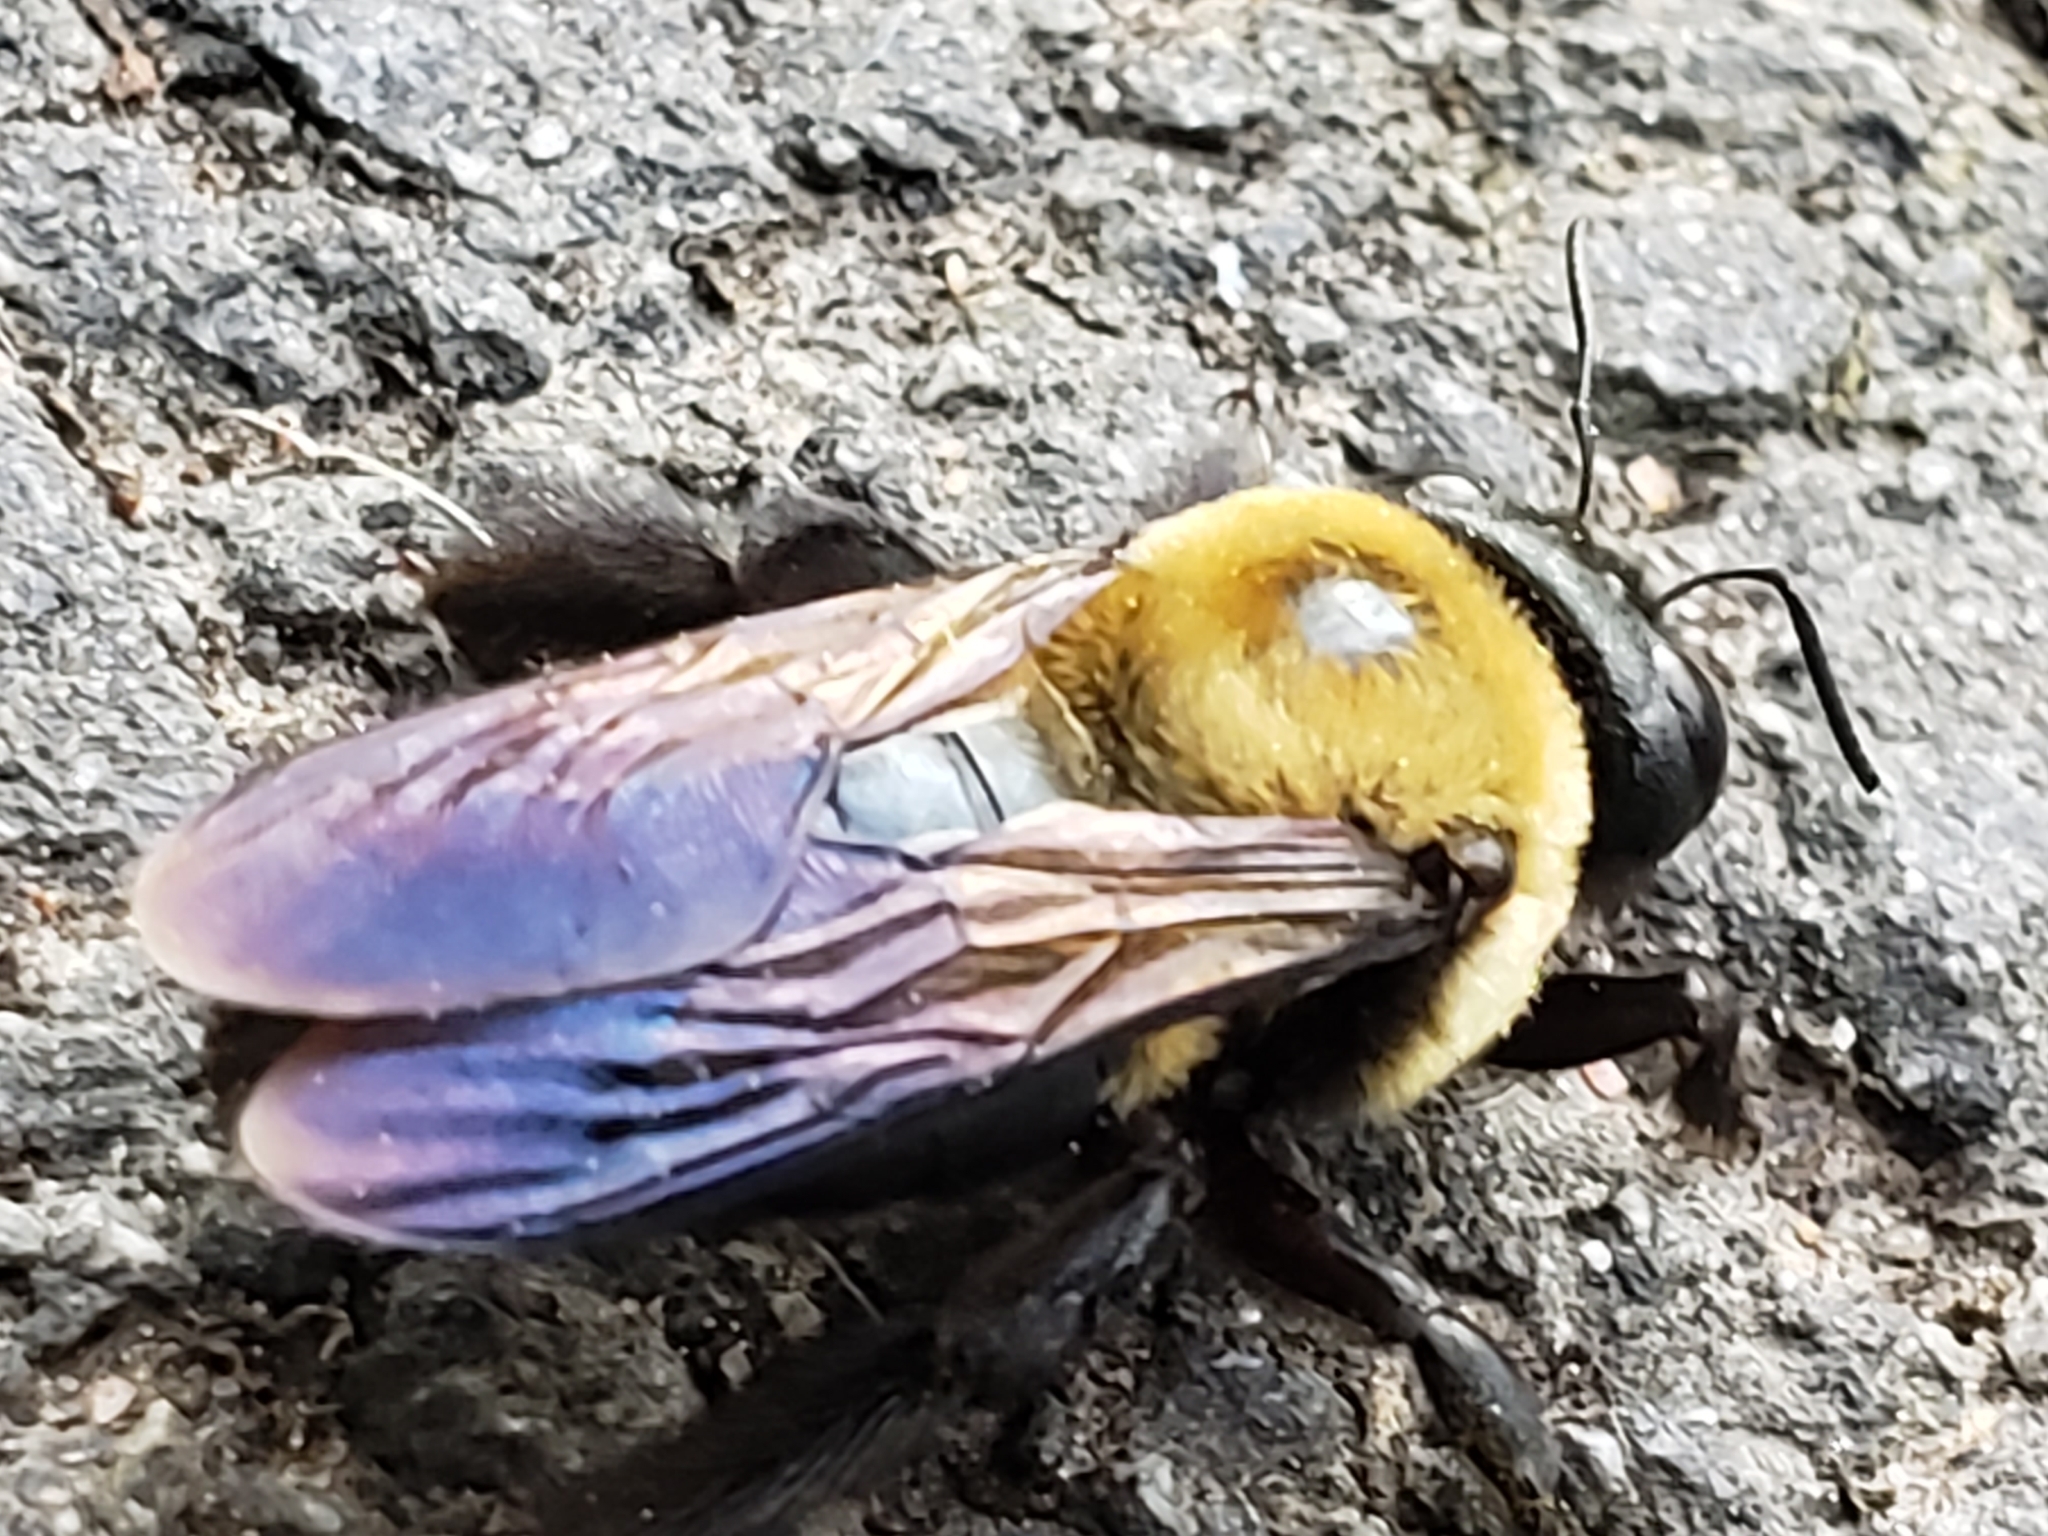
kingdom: Animalia
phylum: Arthropoda
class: Insecta
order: Hymenoptera
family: Apidae
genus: Xylocopa
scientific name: Xylocopa virginica
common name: Carpenter bee
